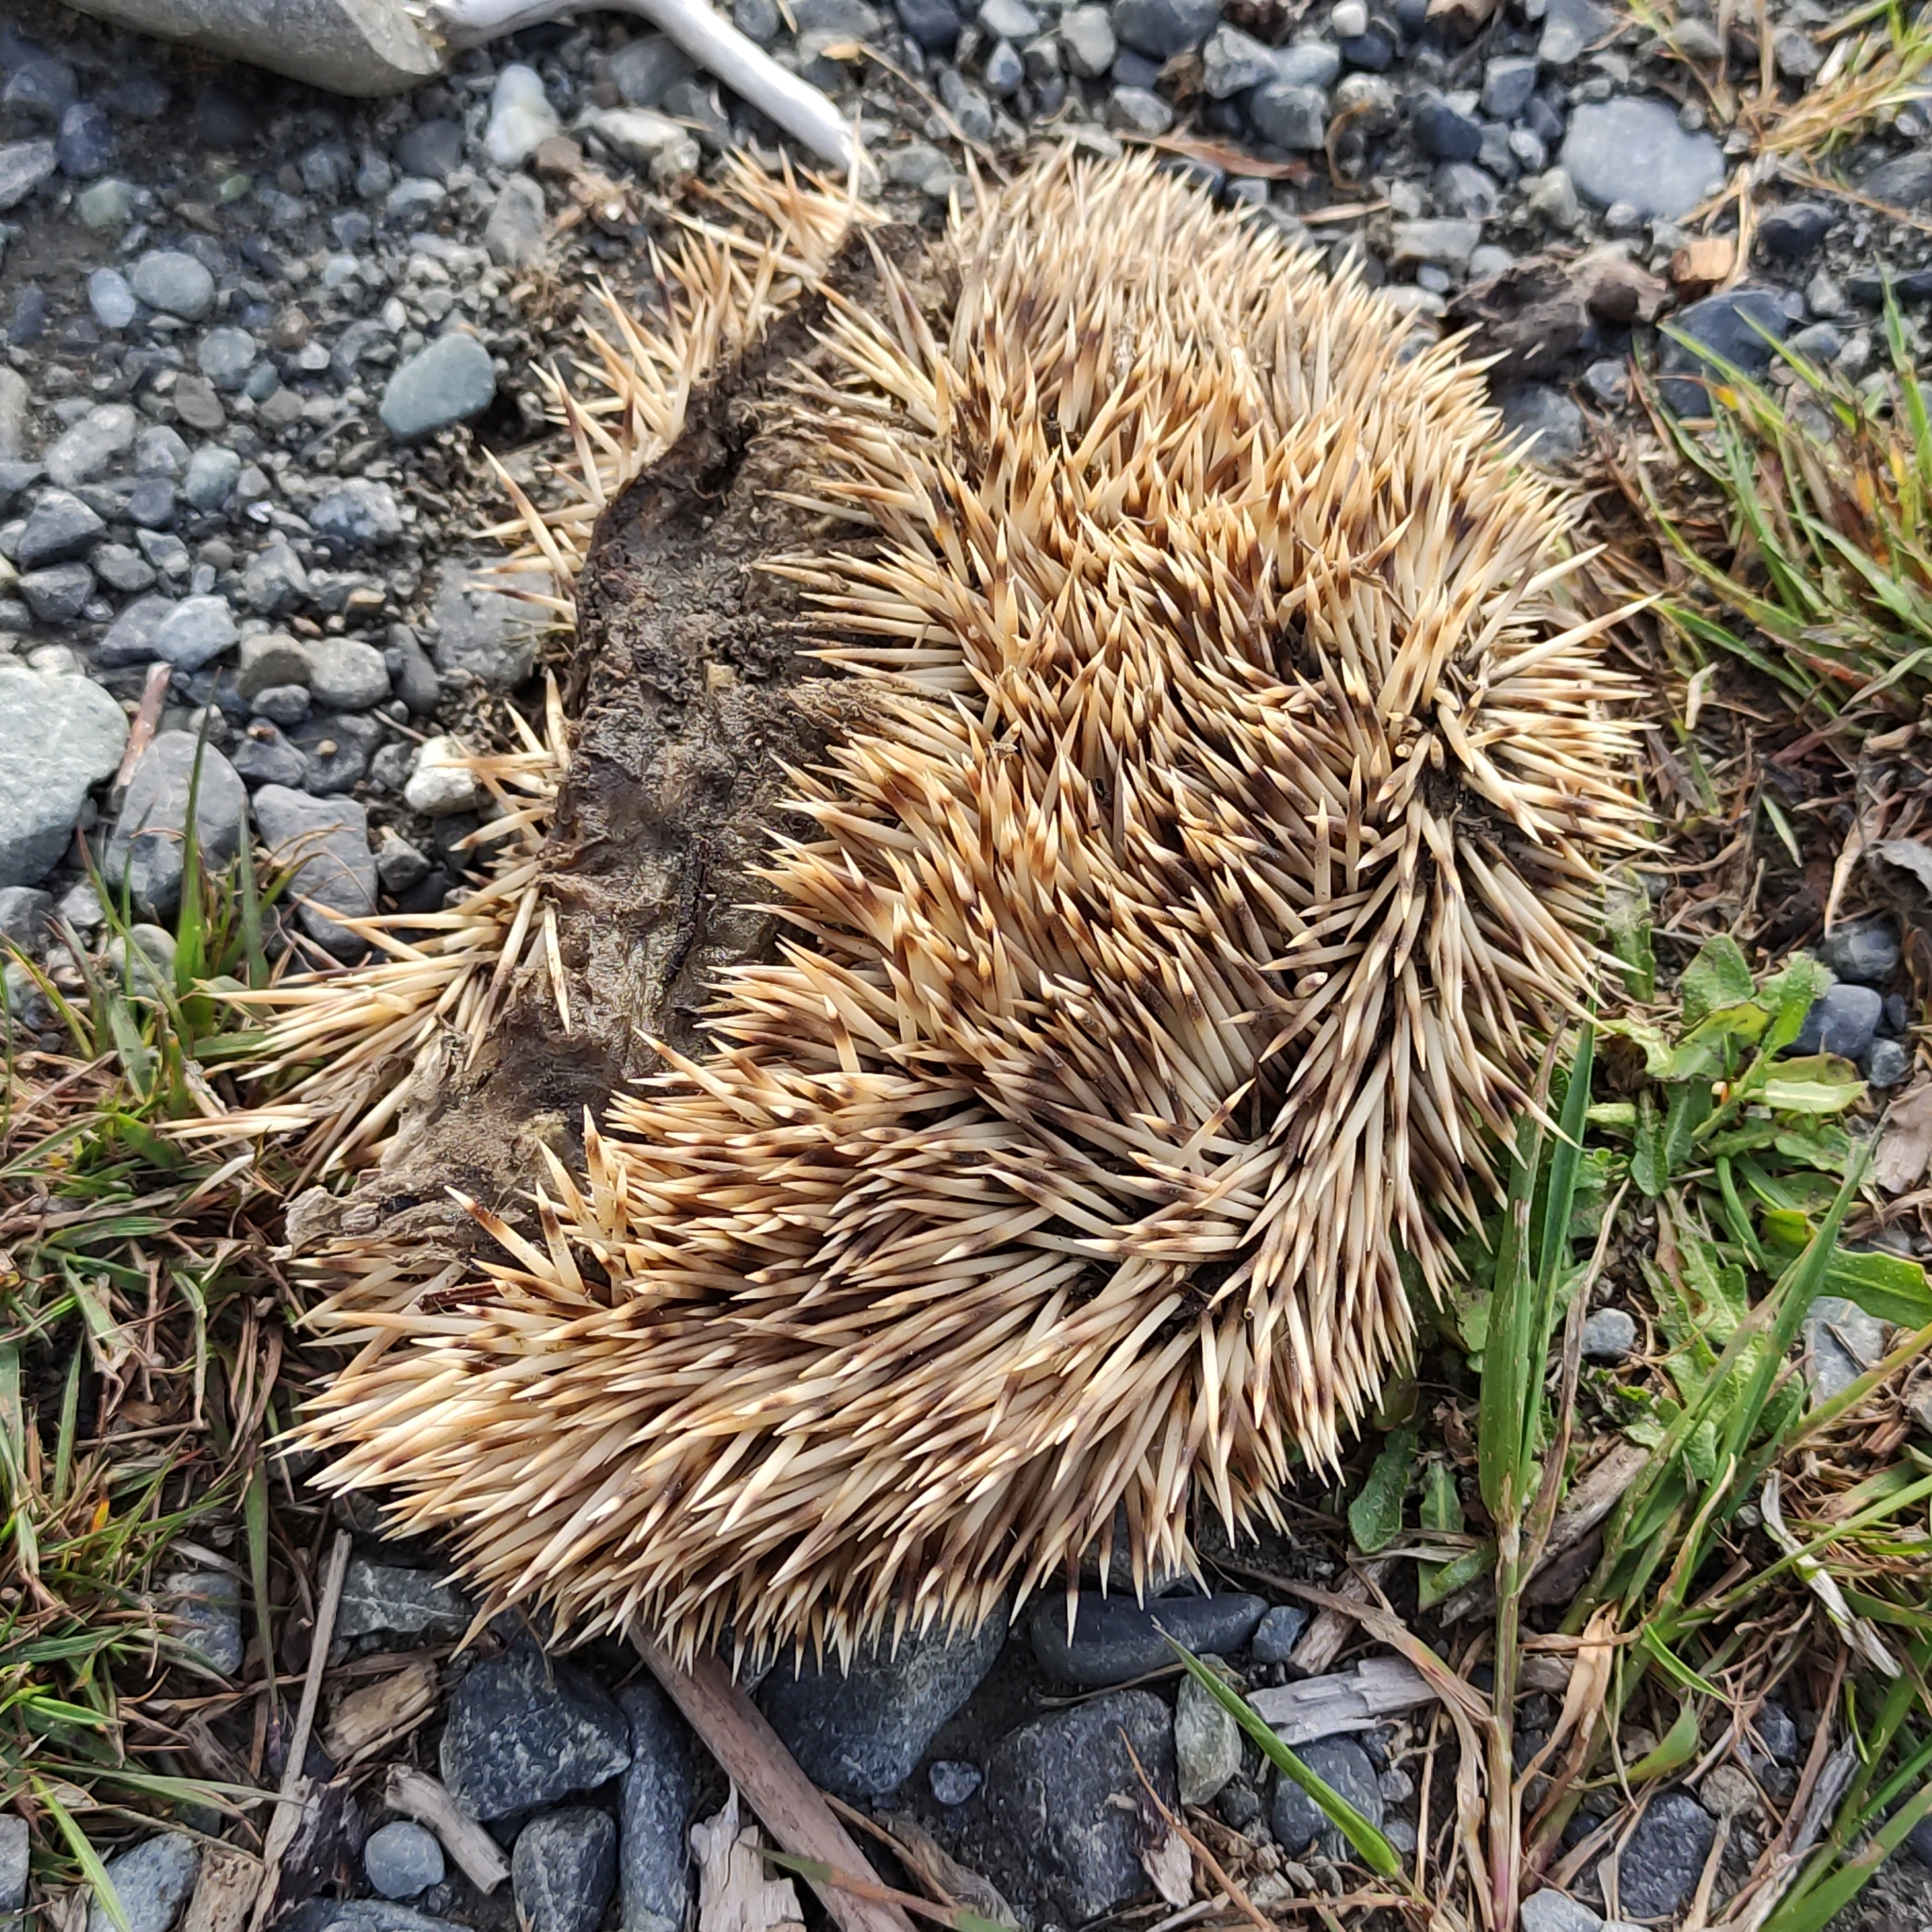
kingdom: Animalia
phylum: Chordata
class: Mammalia
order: Erinaceomorpha
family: Erinaceidae
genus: Erinaceus
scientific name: Erinaceus europaeus
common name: West european hedgehog
